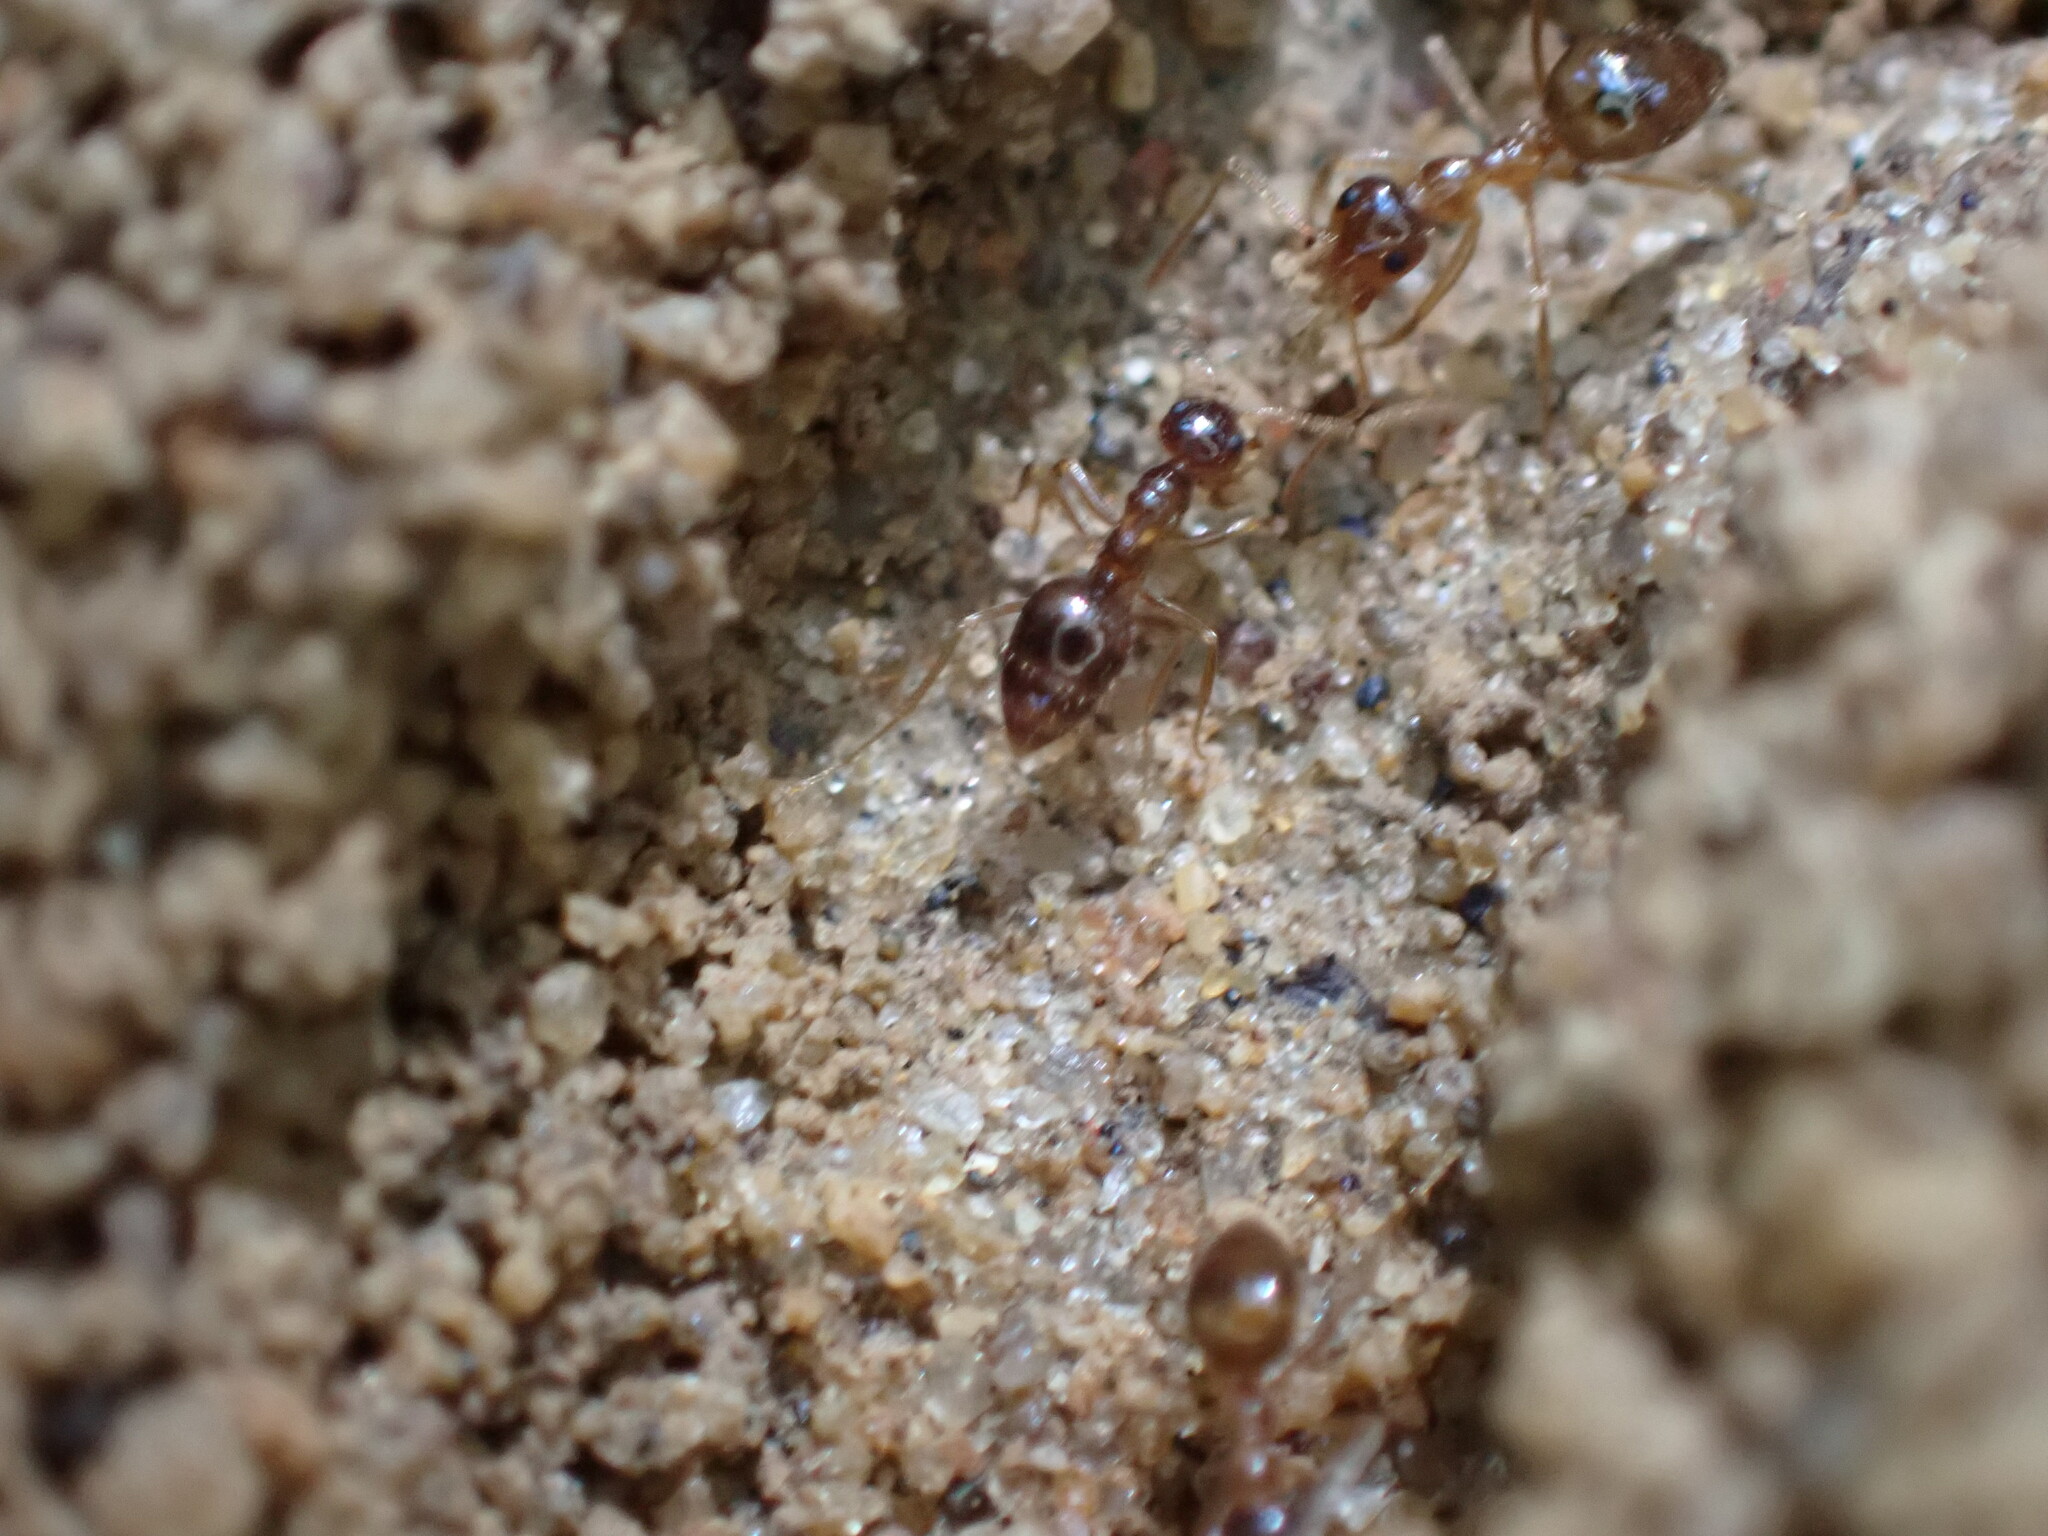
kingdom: Animalia
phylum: Arthropoda
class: Insecta
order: Hymenoptera
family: Formicidae
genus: Prenolepis
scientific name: Prenolepis imparis
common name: Small honey ant
